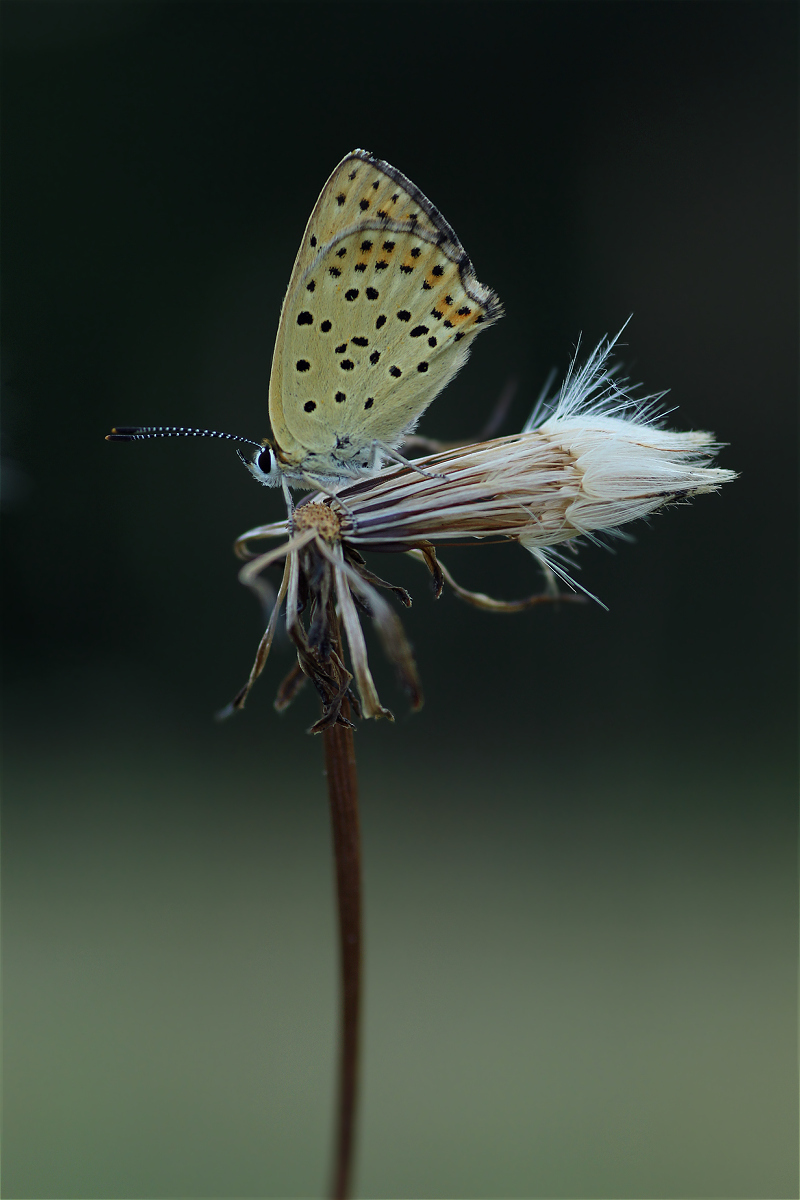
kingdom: Animalia
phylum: Arthropoda
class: Insecta
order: Lepidoptera
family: Lycaenidae
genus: Loweia
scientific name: Loweia tityrus
